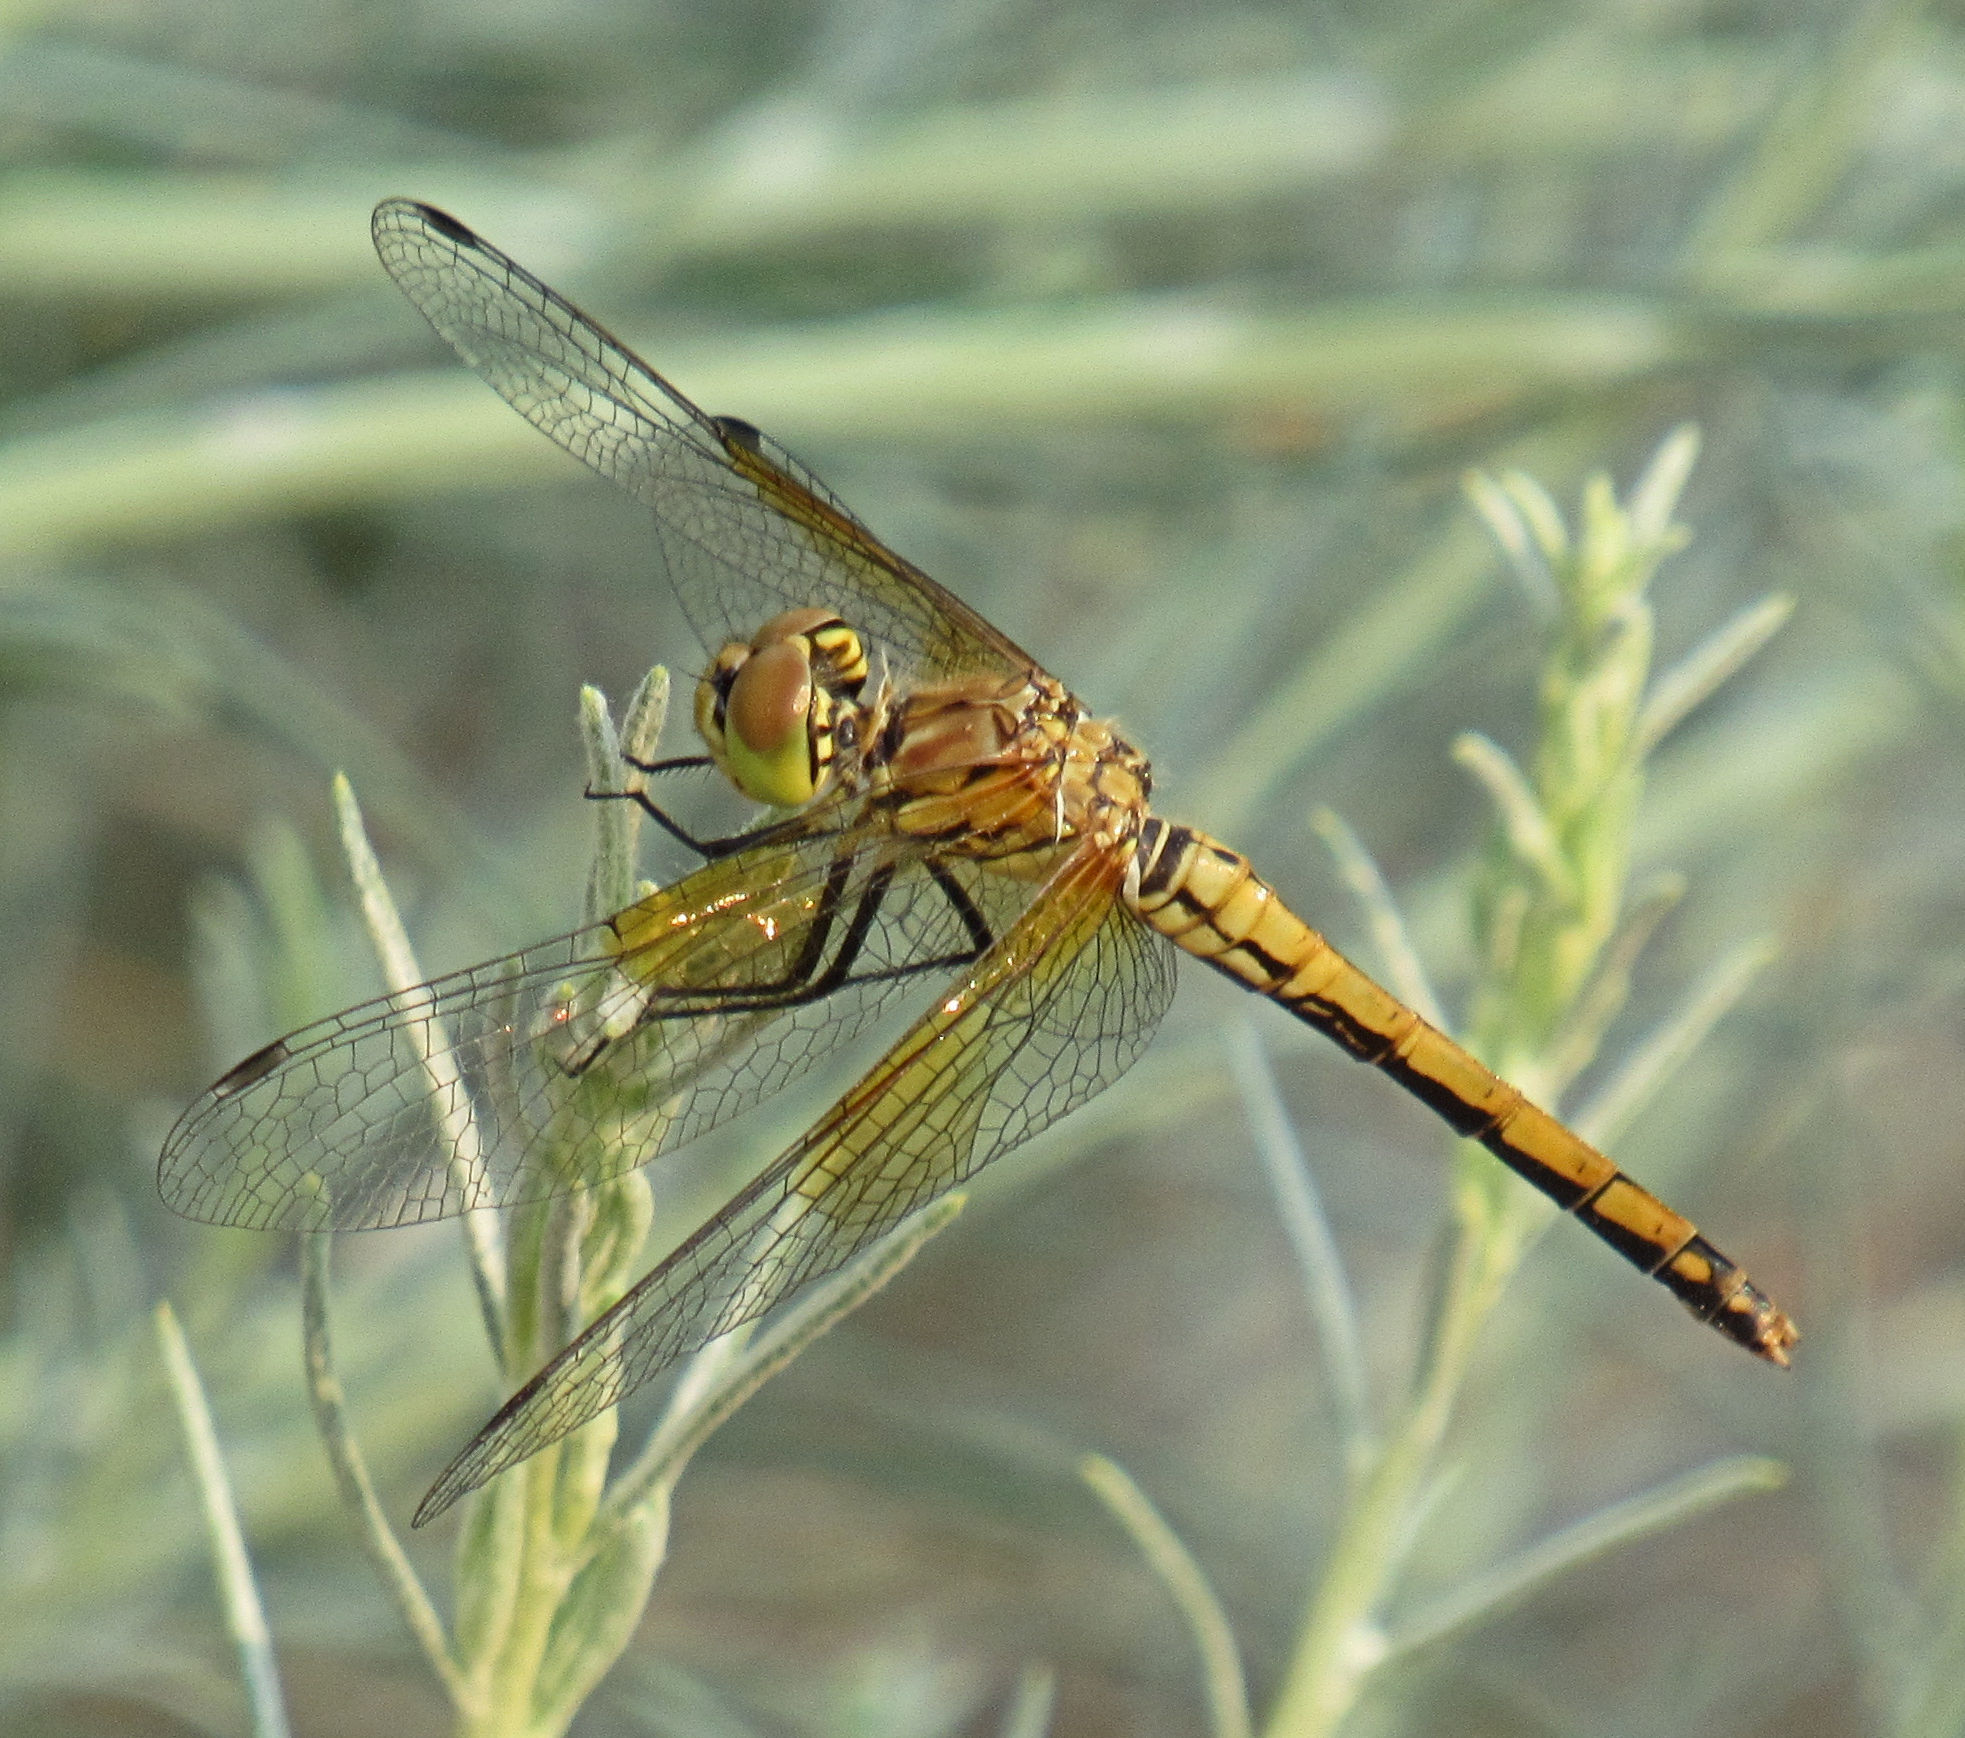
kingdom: Animalia
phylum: Arthropoda
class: Insecta
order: Odonata
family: Libellulidae
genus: Sympetrum
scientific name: Sympetrum semicinctum
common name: Band-winged meadowhawk
